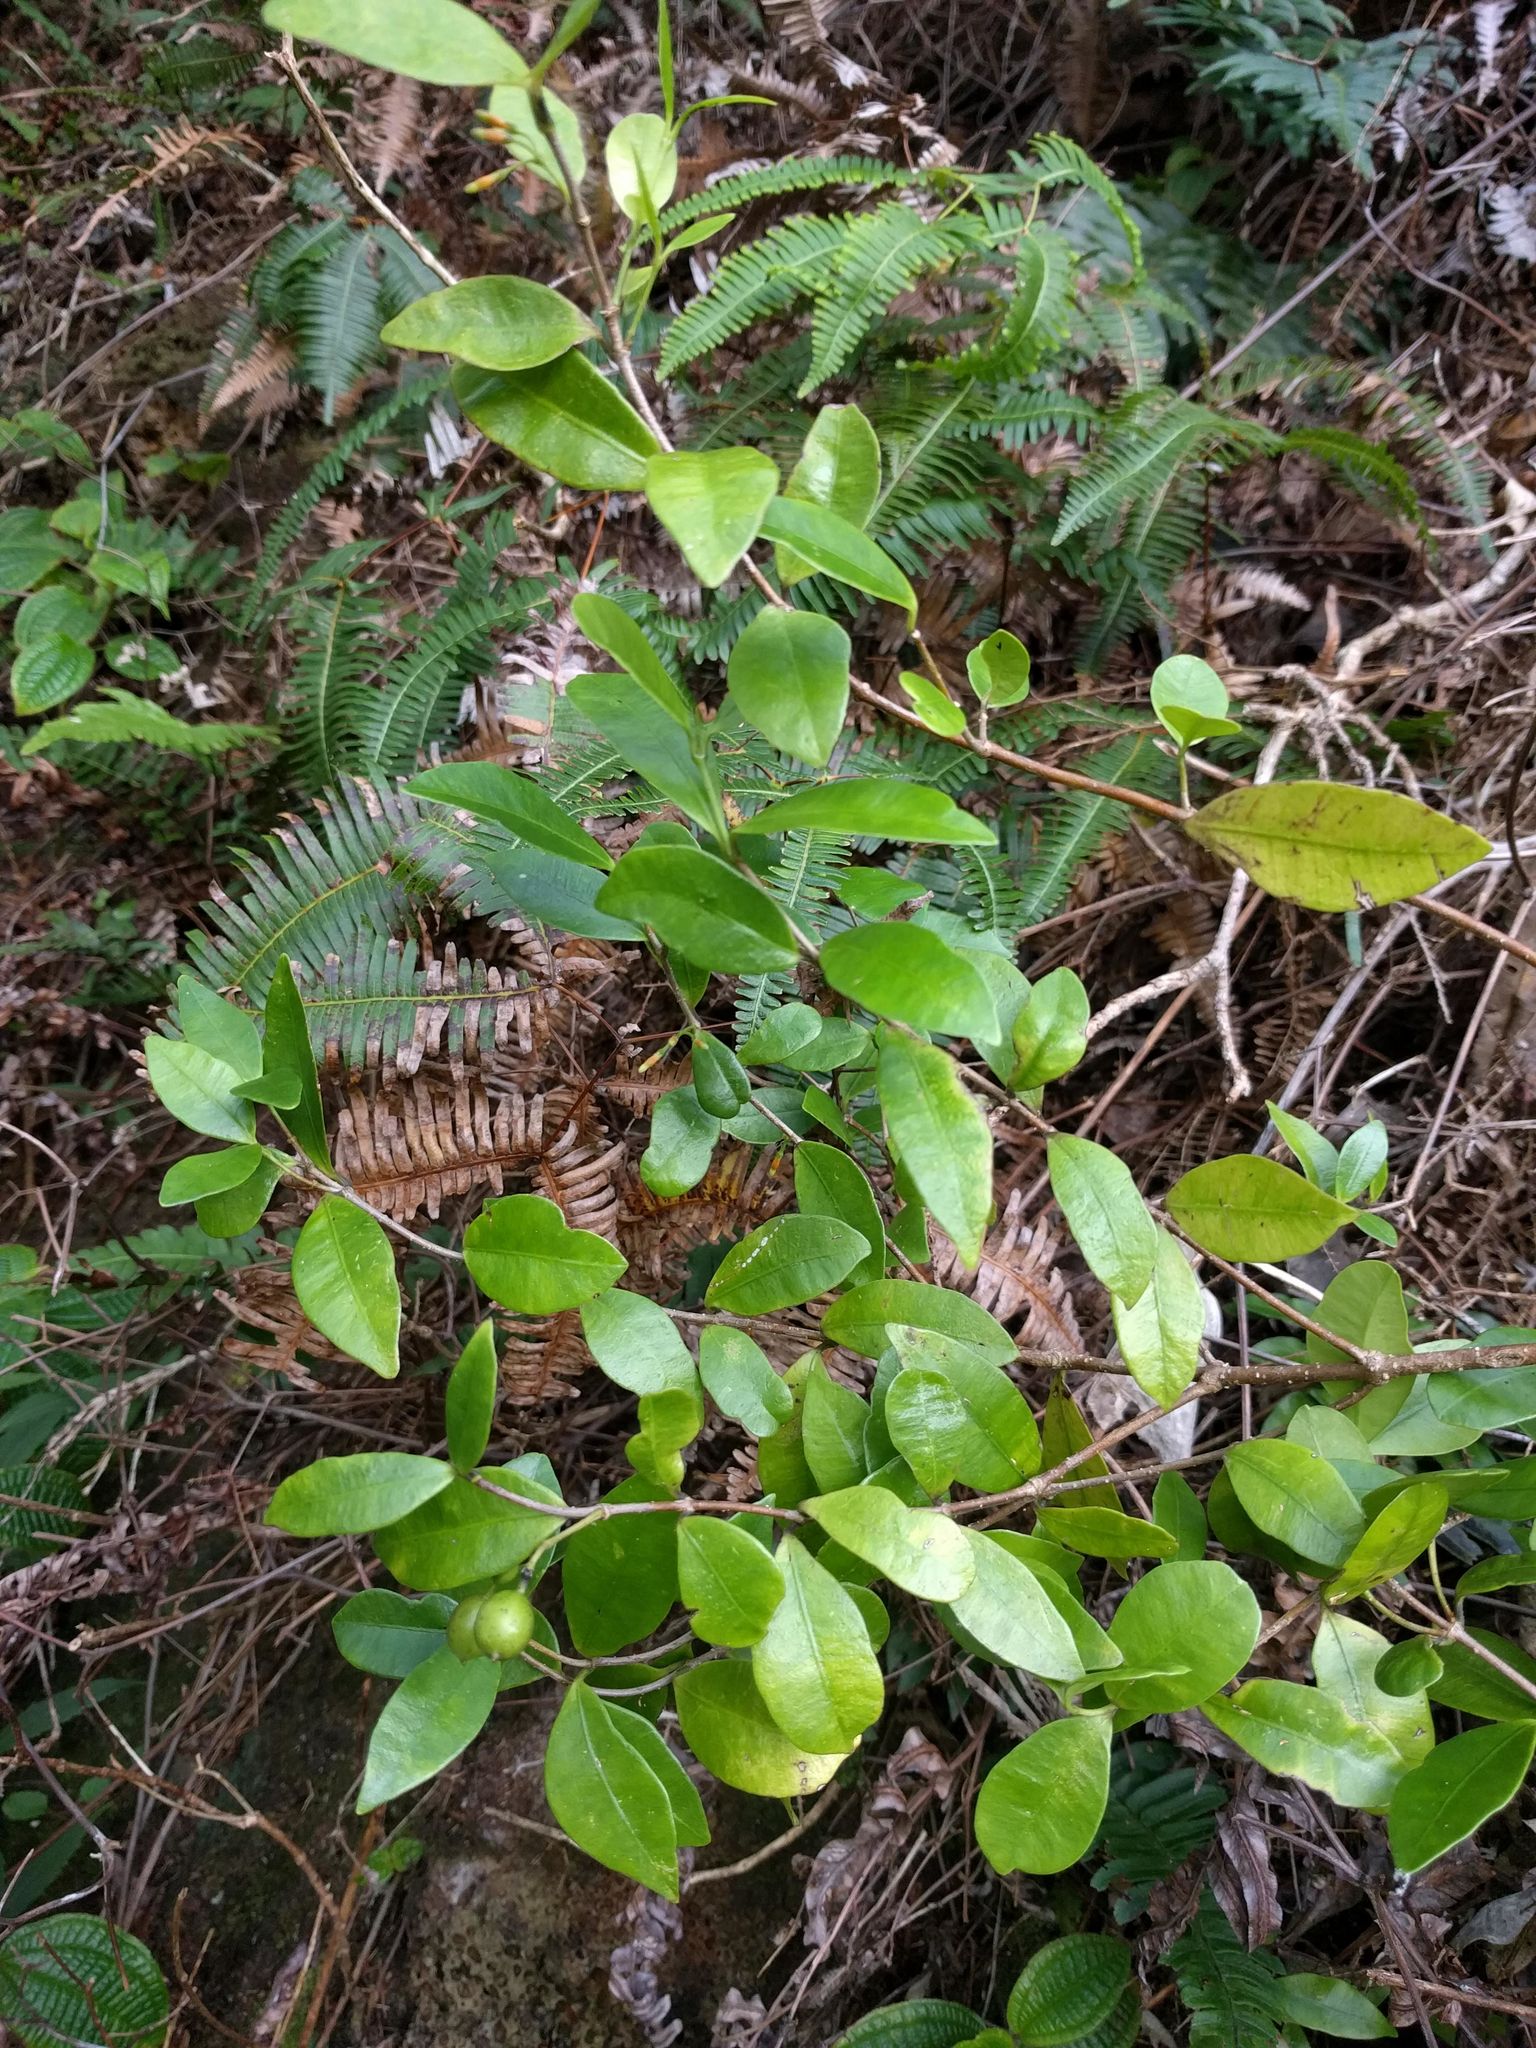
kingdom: Plantae
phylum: Tracheophyta
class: Magnoliopsida
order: Gentianales
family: Apocynaceae
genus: Alyxia
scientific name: Alyxia stellata
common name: Maile
